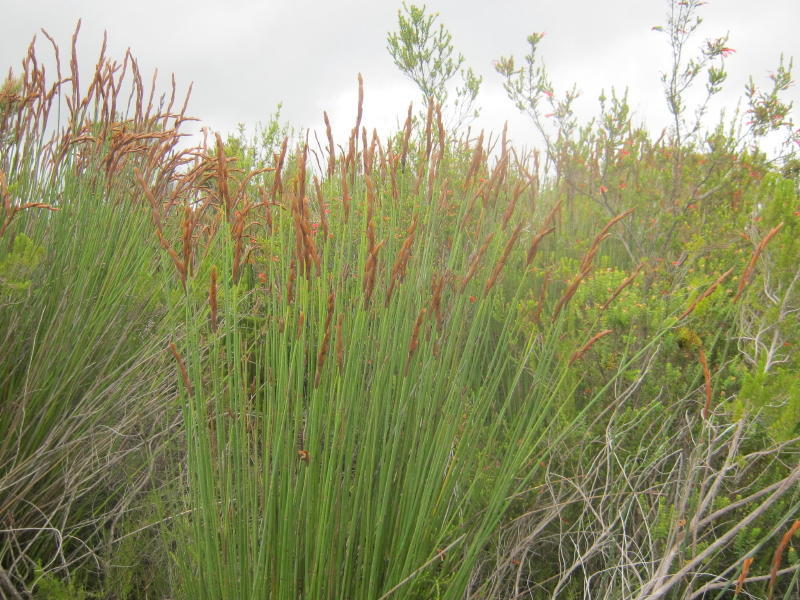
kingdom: Plantae
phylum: Tracheophyta
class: Liliopsida
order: Poales
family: Restionaceae
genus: Elegia
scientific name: Elegia thyrsoidea
